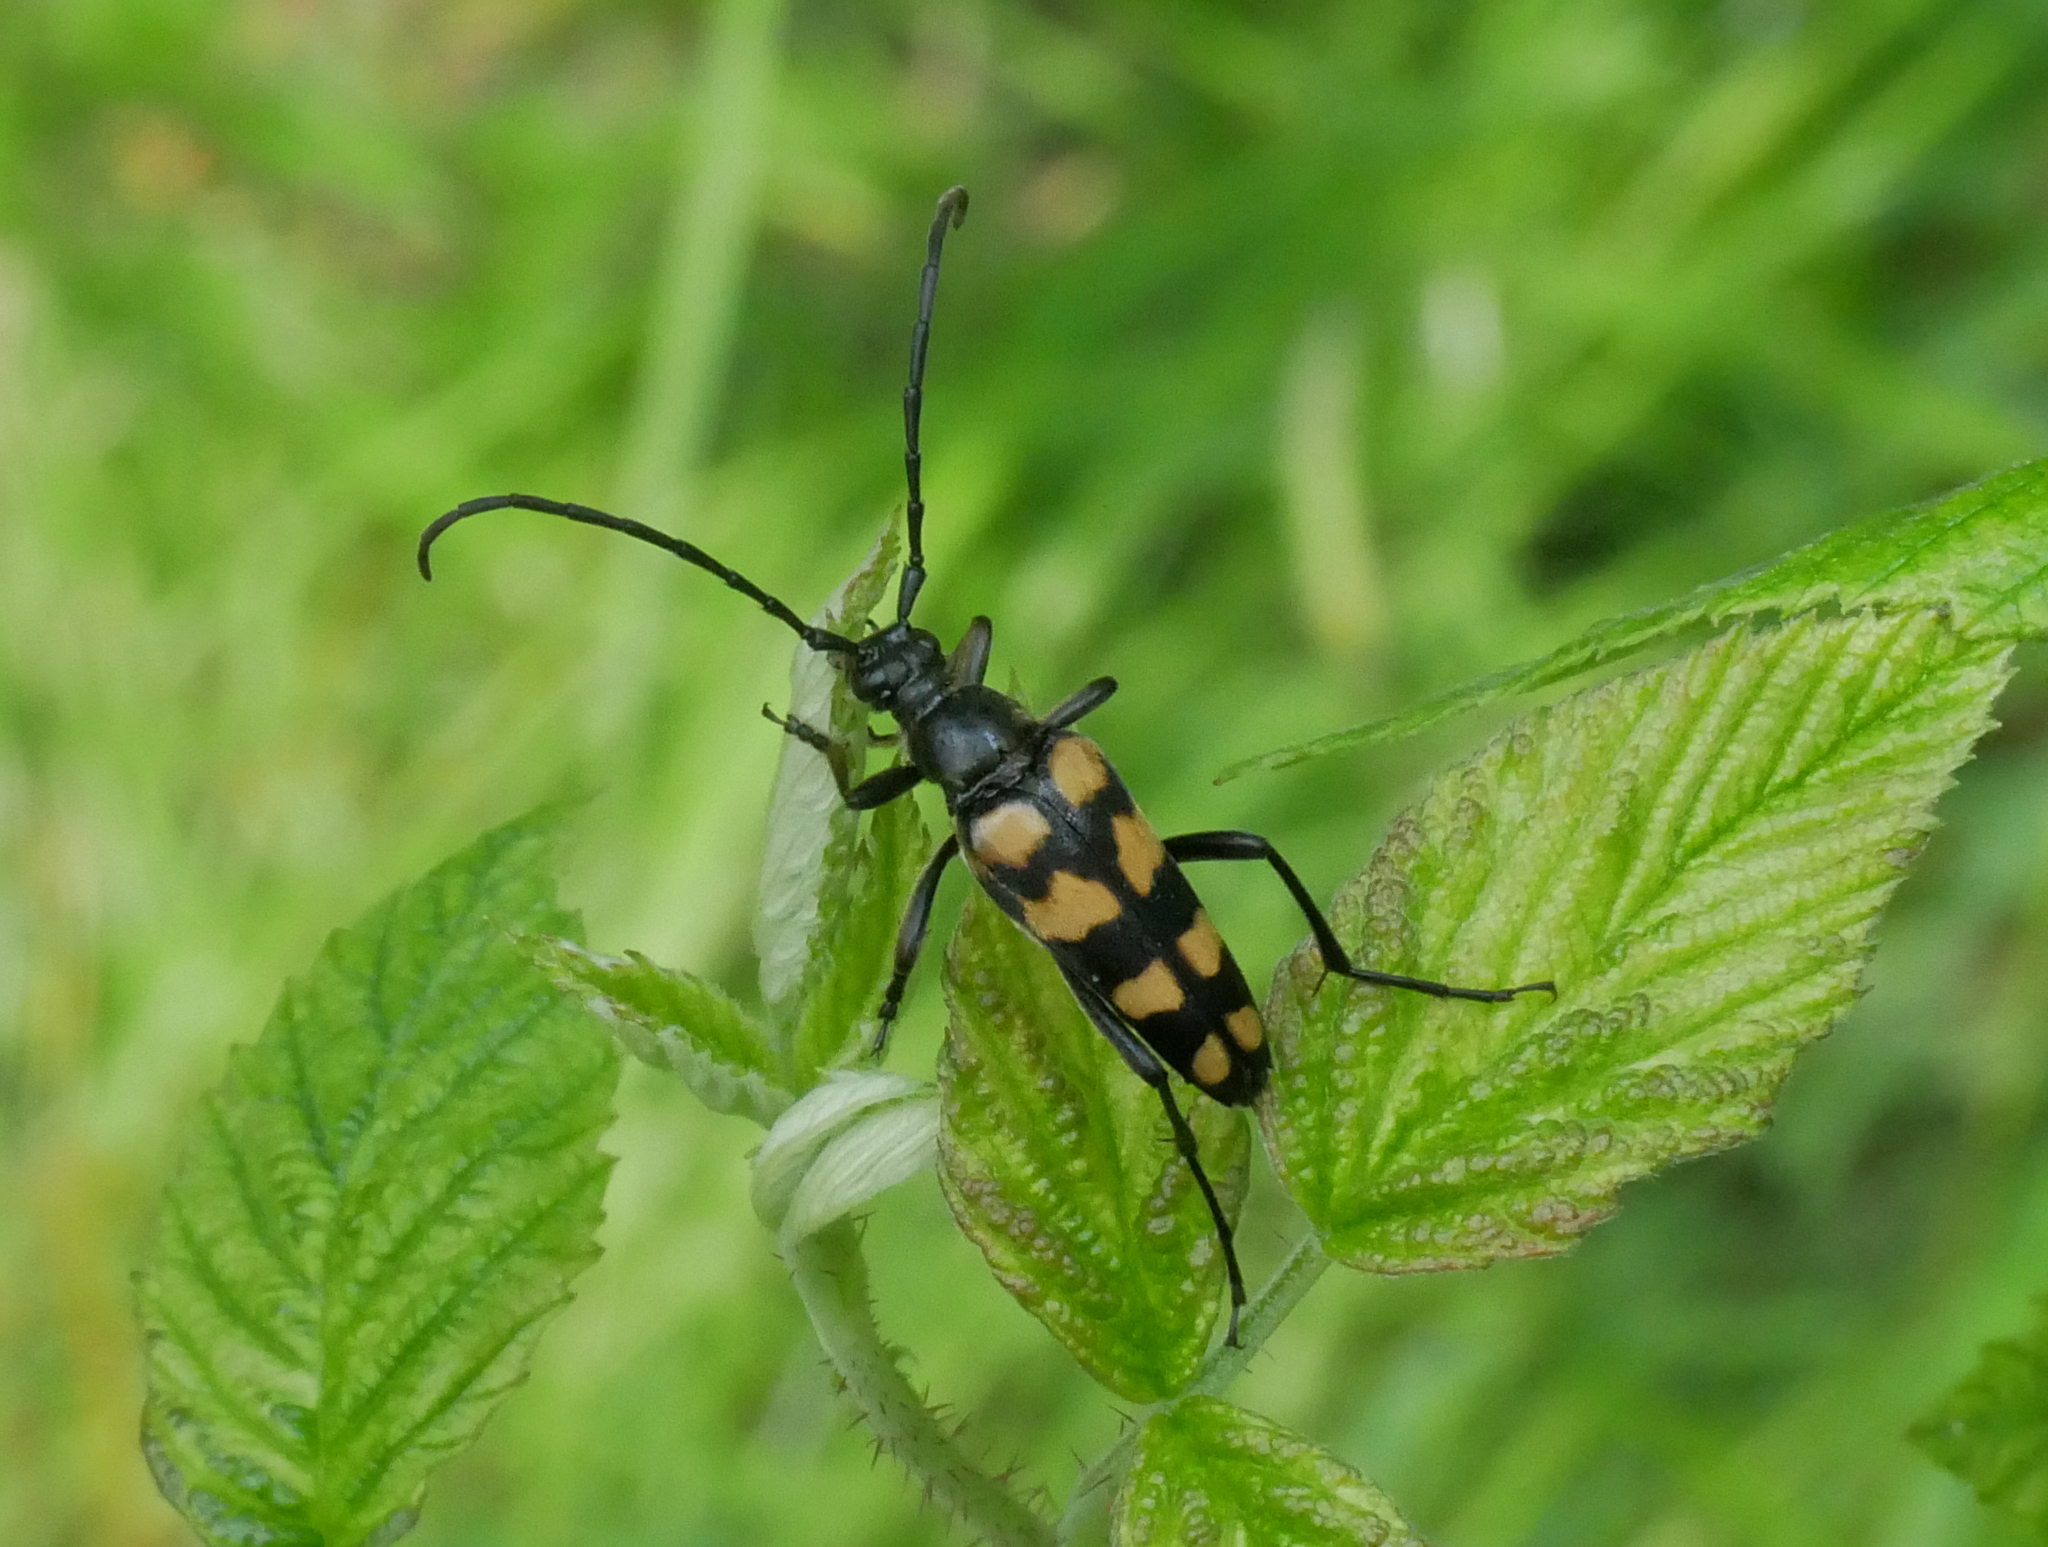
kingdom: Animalia
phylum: Arthropoda
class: Insecta
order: Coleoptera
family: Cerambycidae
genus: Leptura
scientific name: Leptura quadrifasciata
